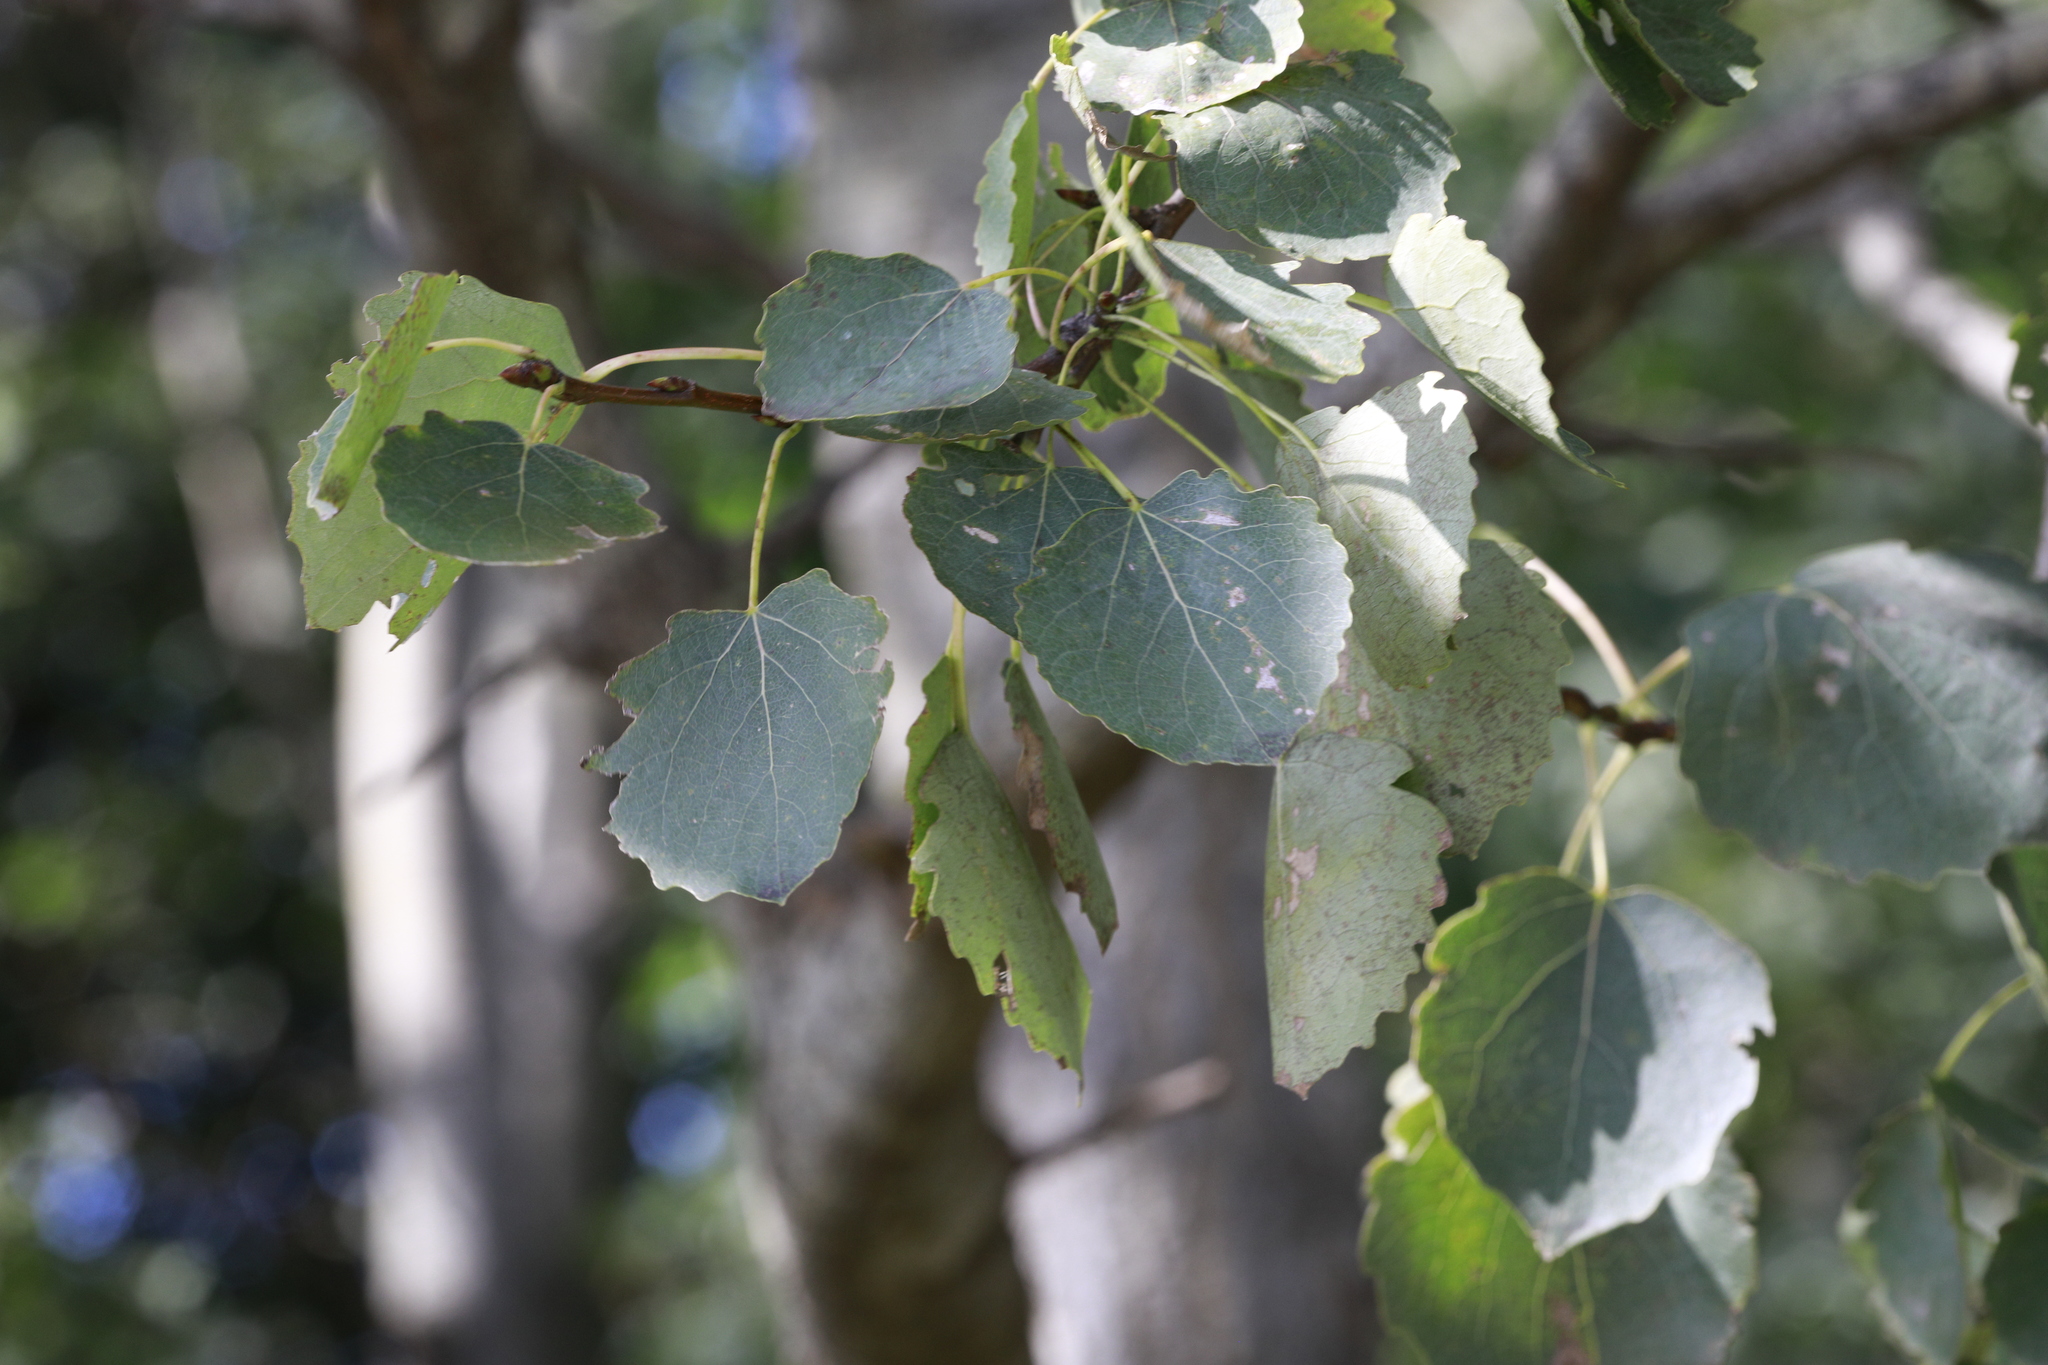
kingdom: Plantae
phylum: Tracheophyta
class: Magnoliopsida
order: Malpighiales
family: Salicaceae
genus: Populus
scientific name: Populus tremula
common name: European aspen
